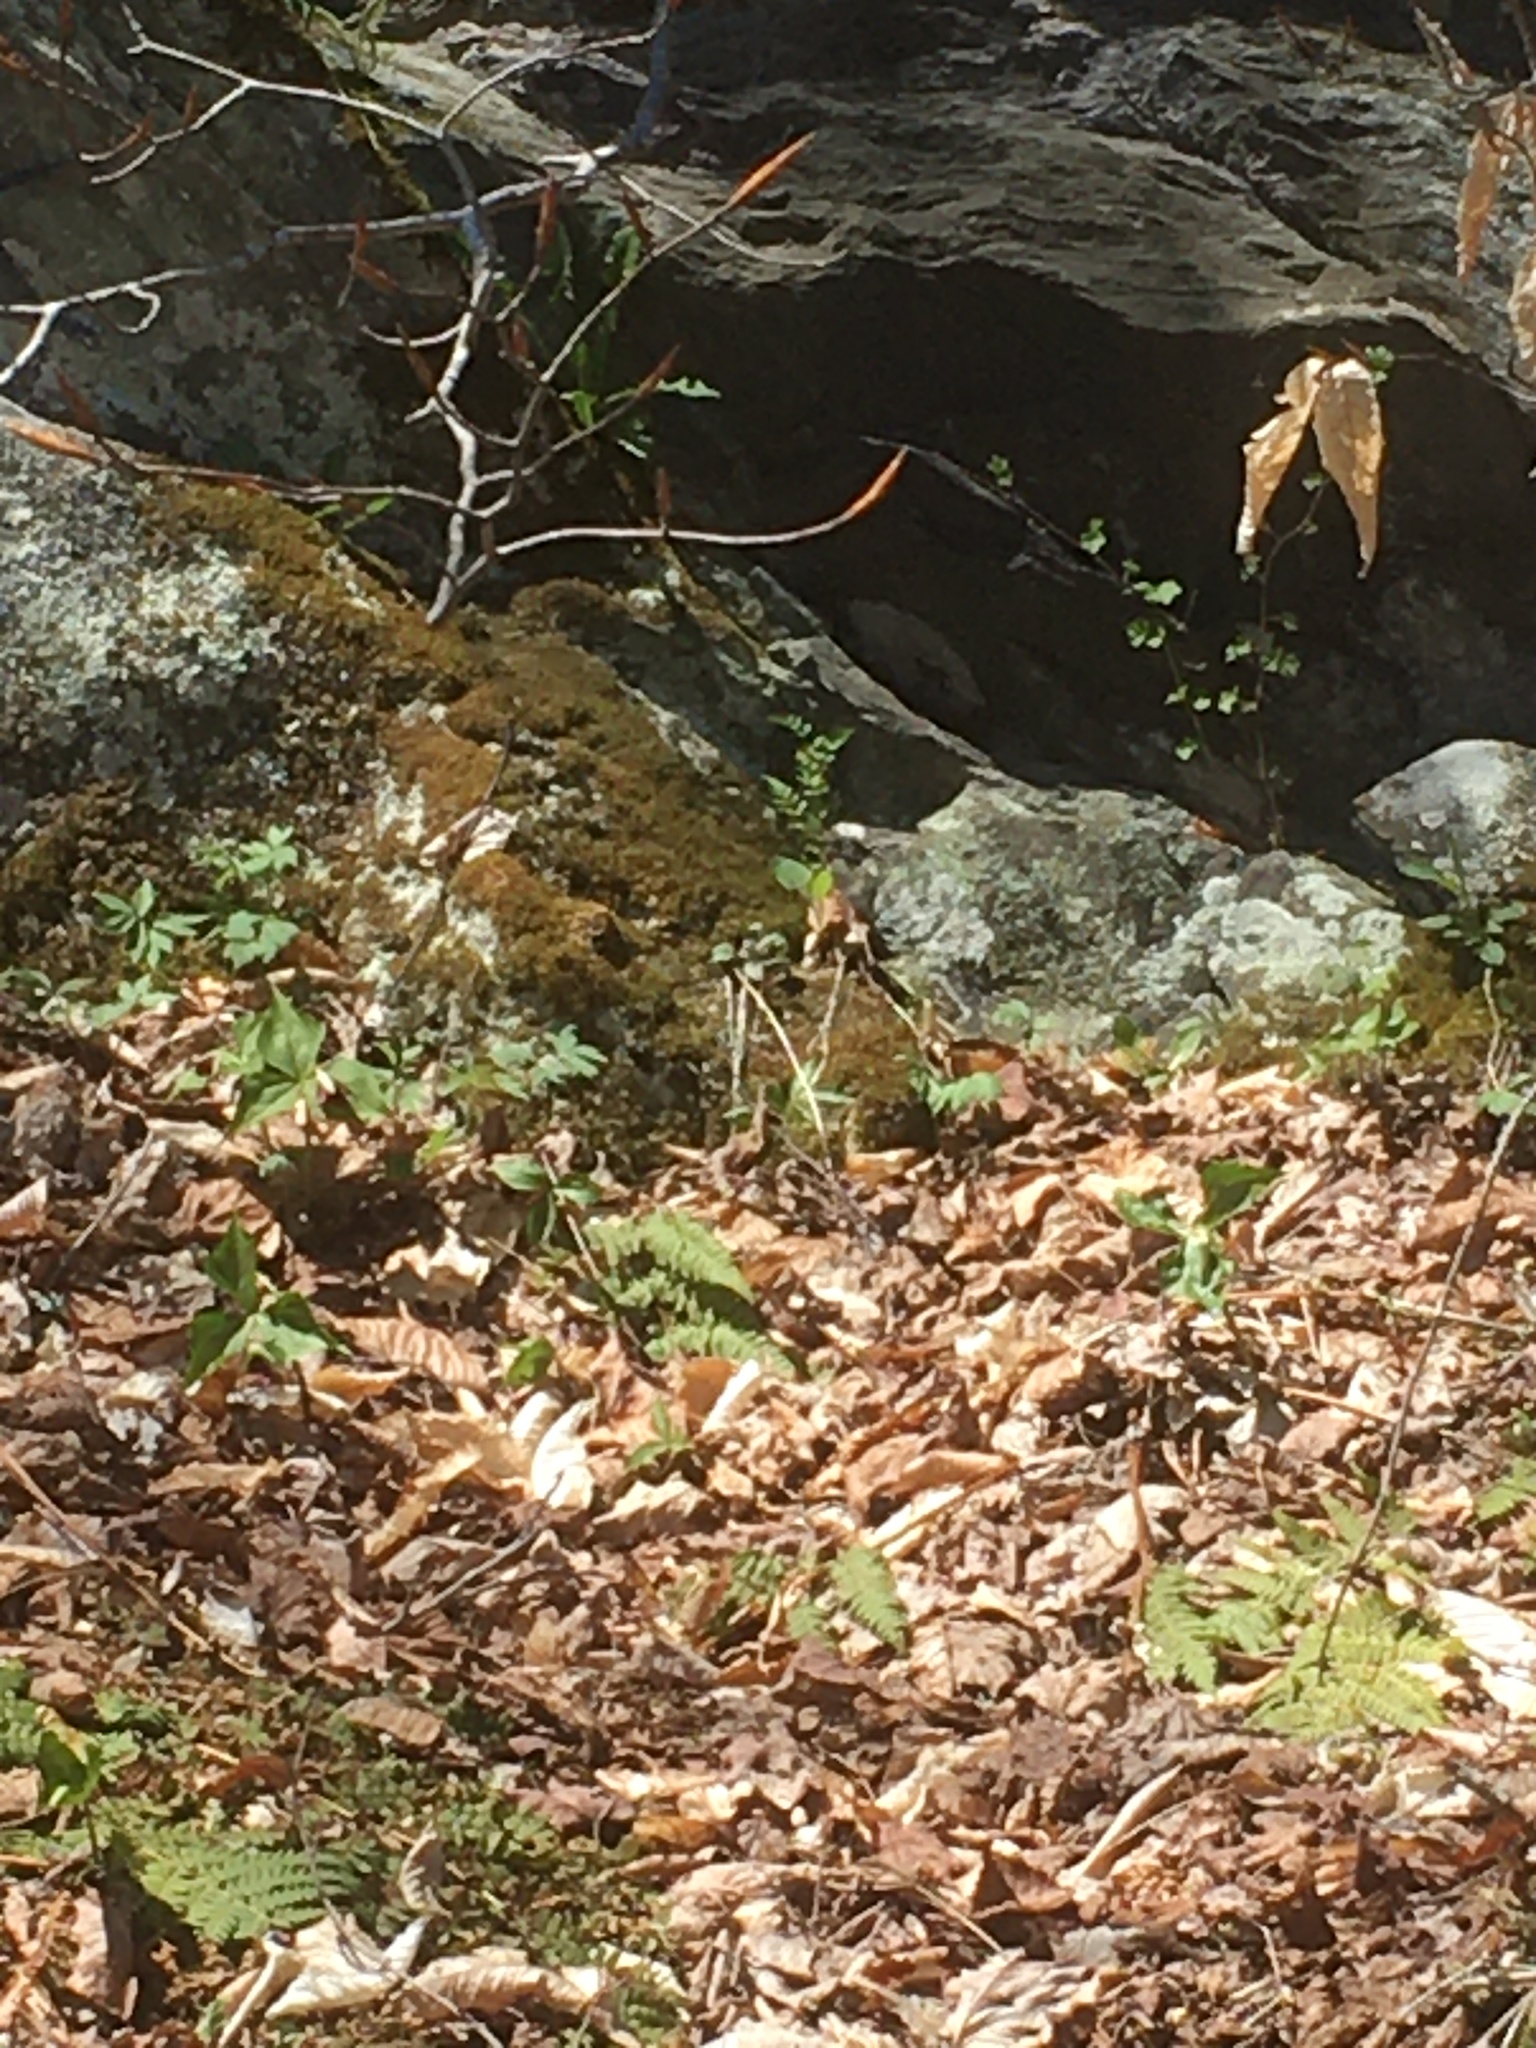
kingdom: Plantae
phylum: Tracheophyta
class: Liliopsida
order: Liliales
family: Melanthiaceae
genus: Trillium
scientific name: Trillium erectum
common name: Purple trillium
